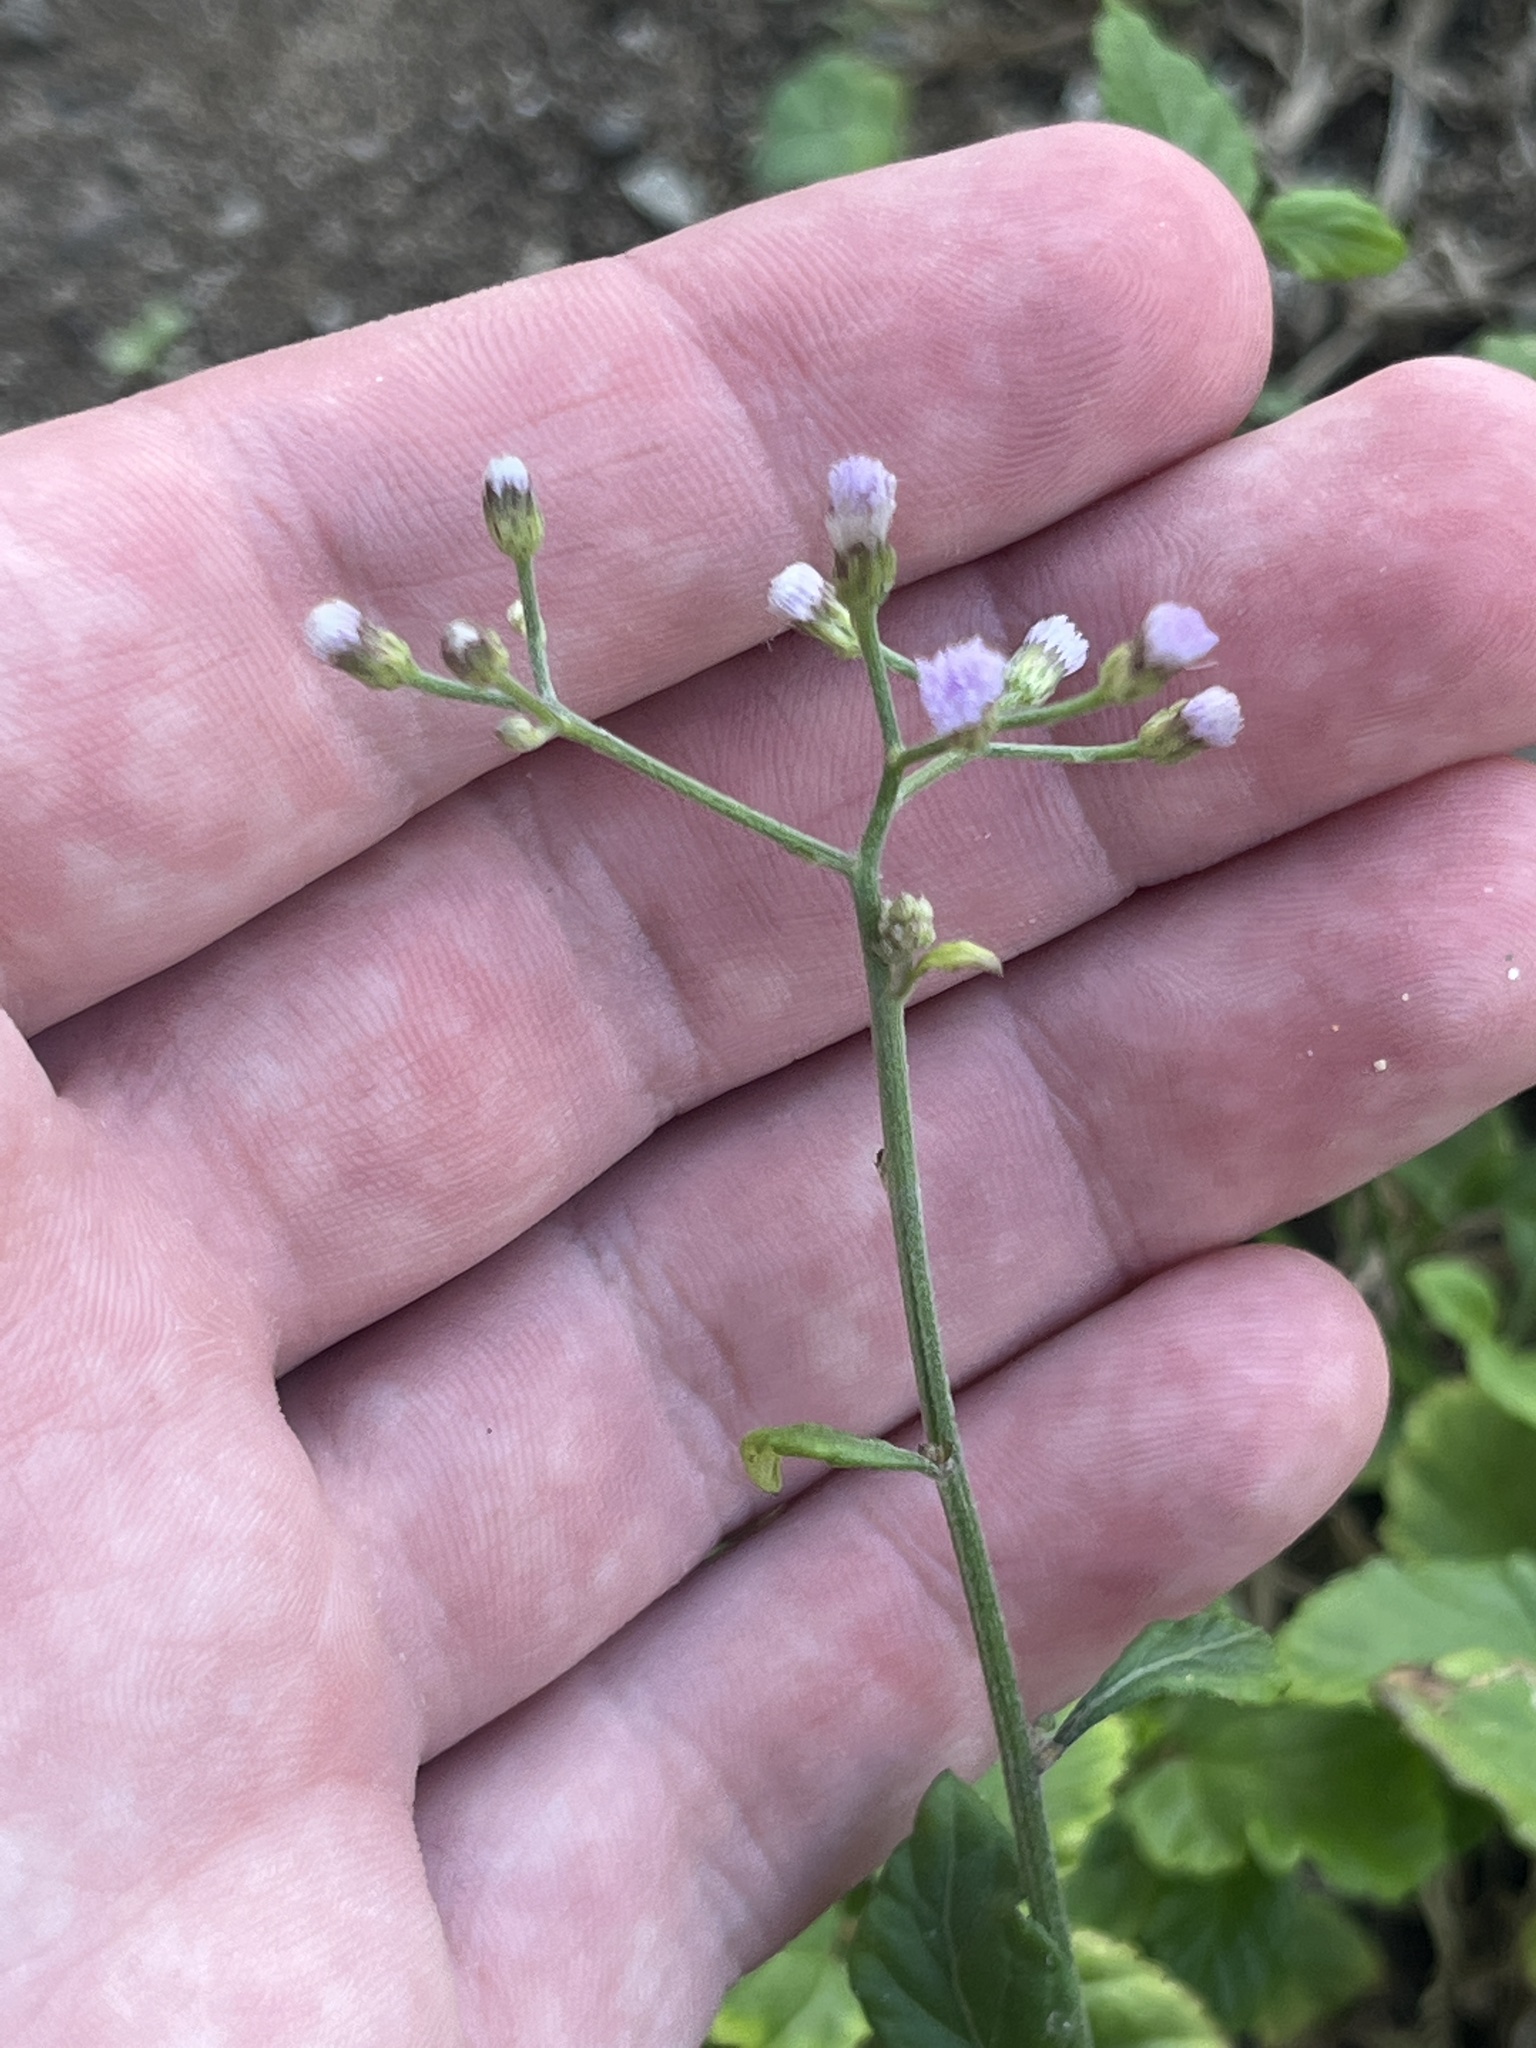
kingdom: Plantae
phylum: Tracheophyta
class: Magnoliopsida
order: Asterales
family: Asteraceae
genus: Cyanthillium
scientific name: Cyanthillium cinereum
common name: Little ironweed
